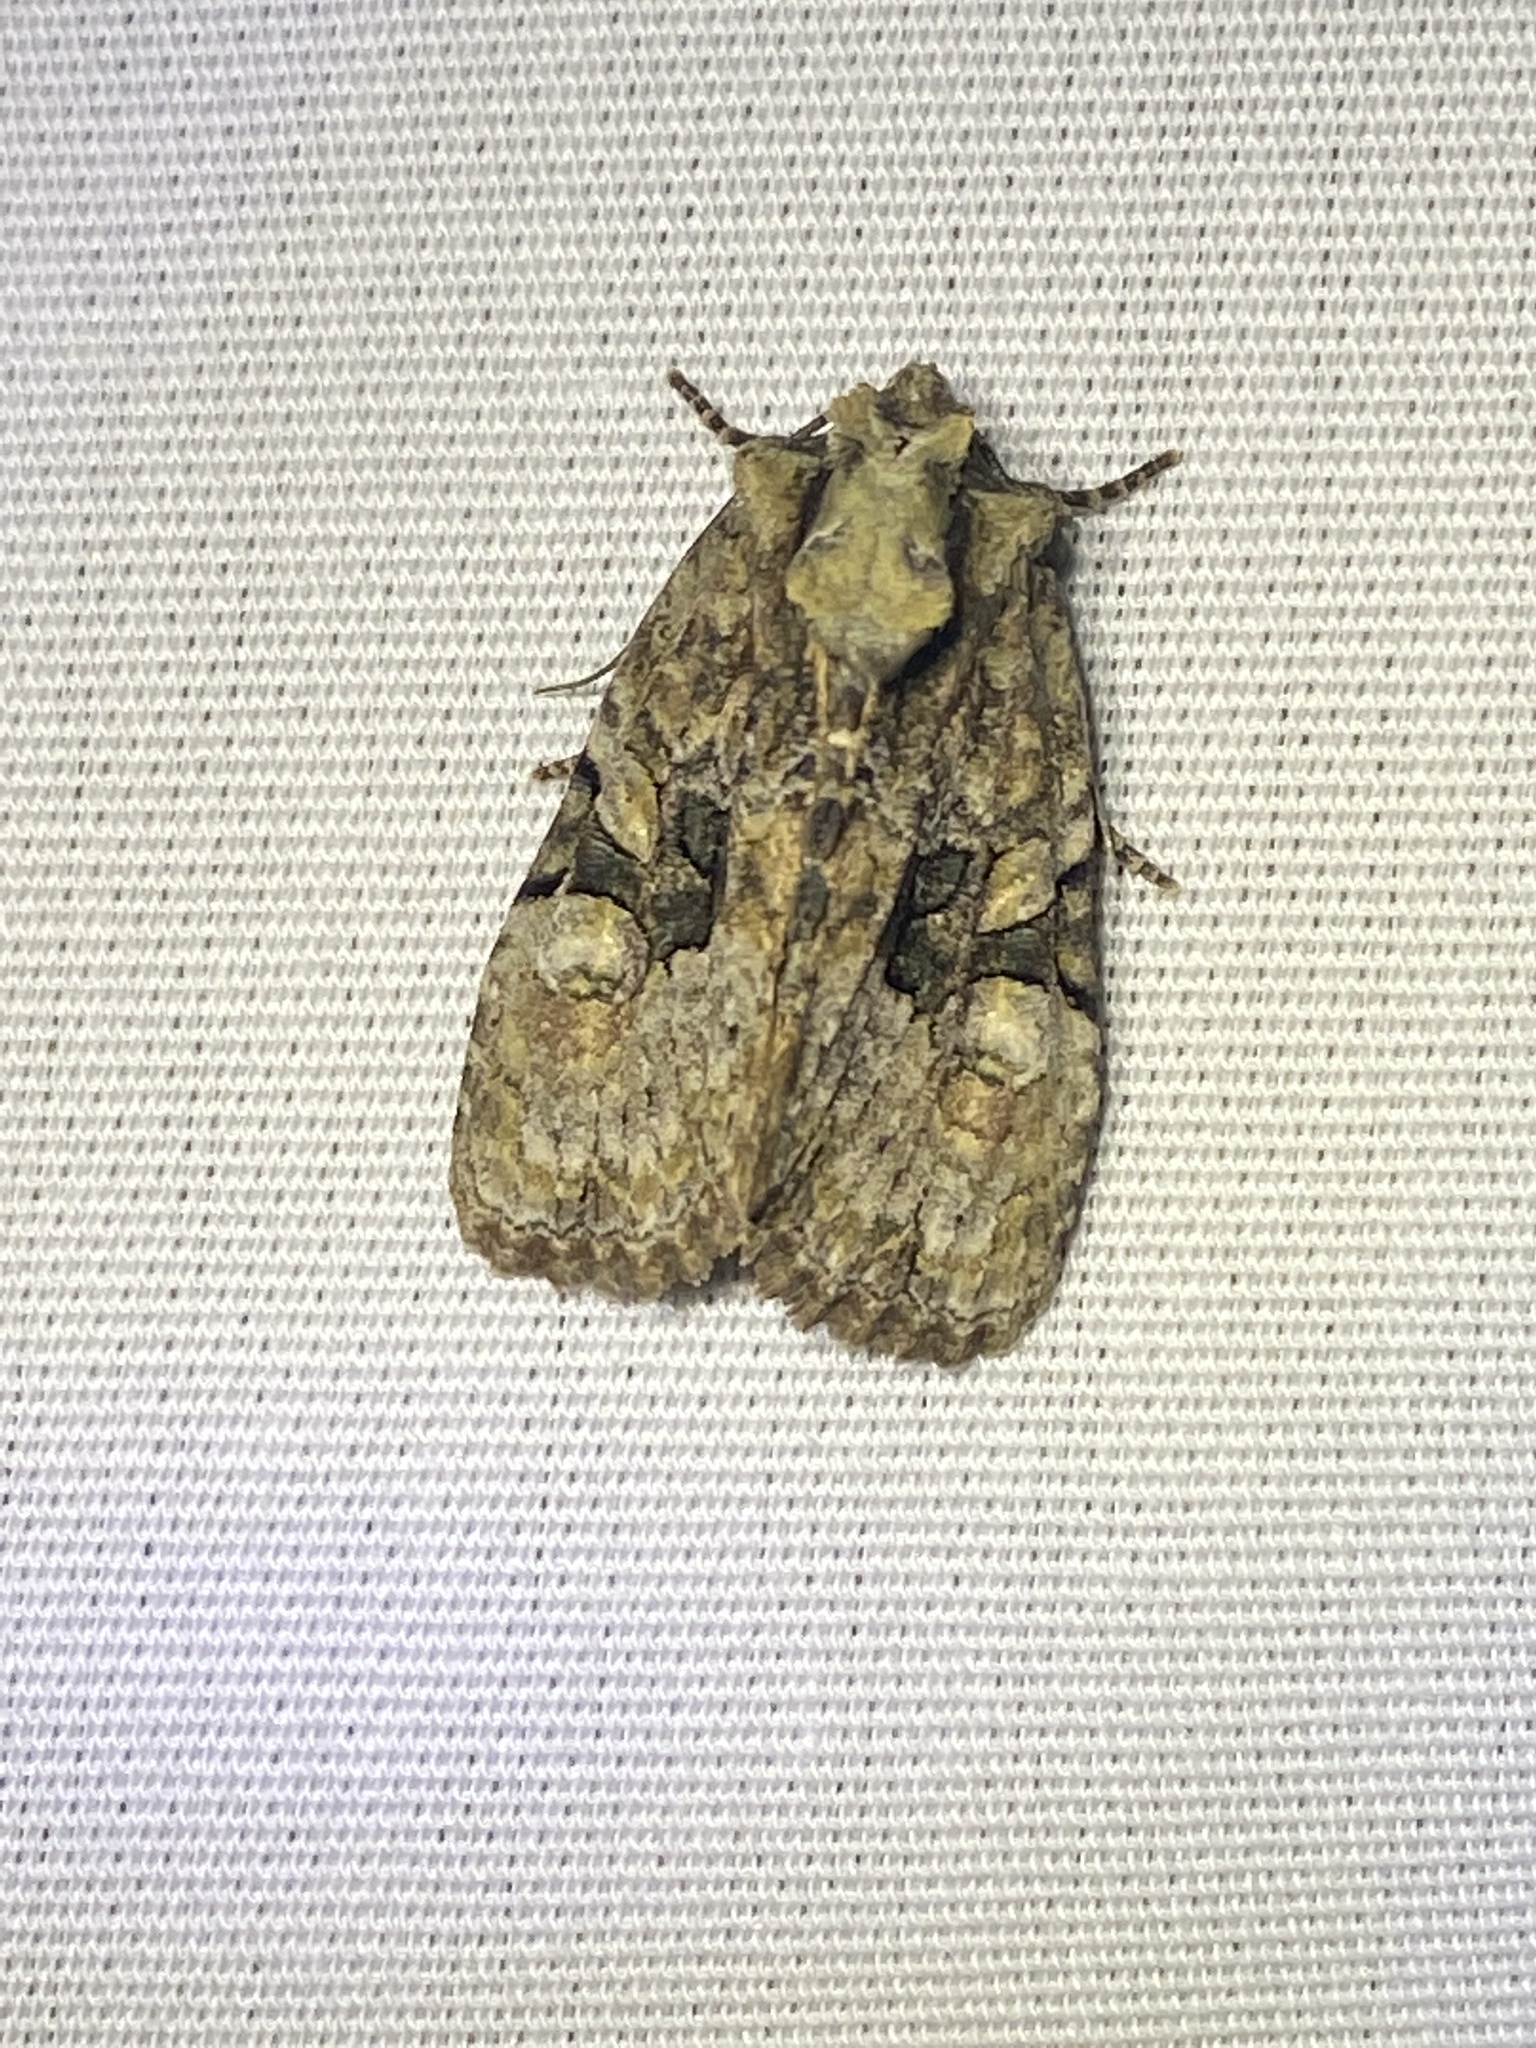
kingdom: Animalia
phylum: Arthropoda
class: Insecta
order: Lepidoptera
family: Noctuidae
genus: Oligia
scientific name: Oligia modica
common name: Black-banded brocade
